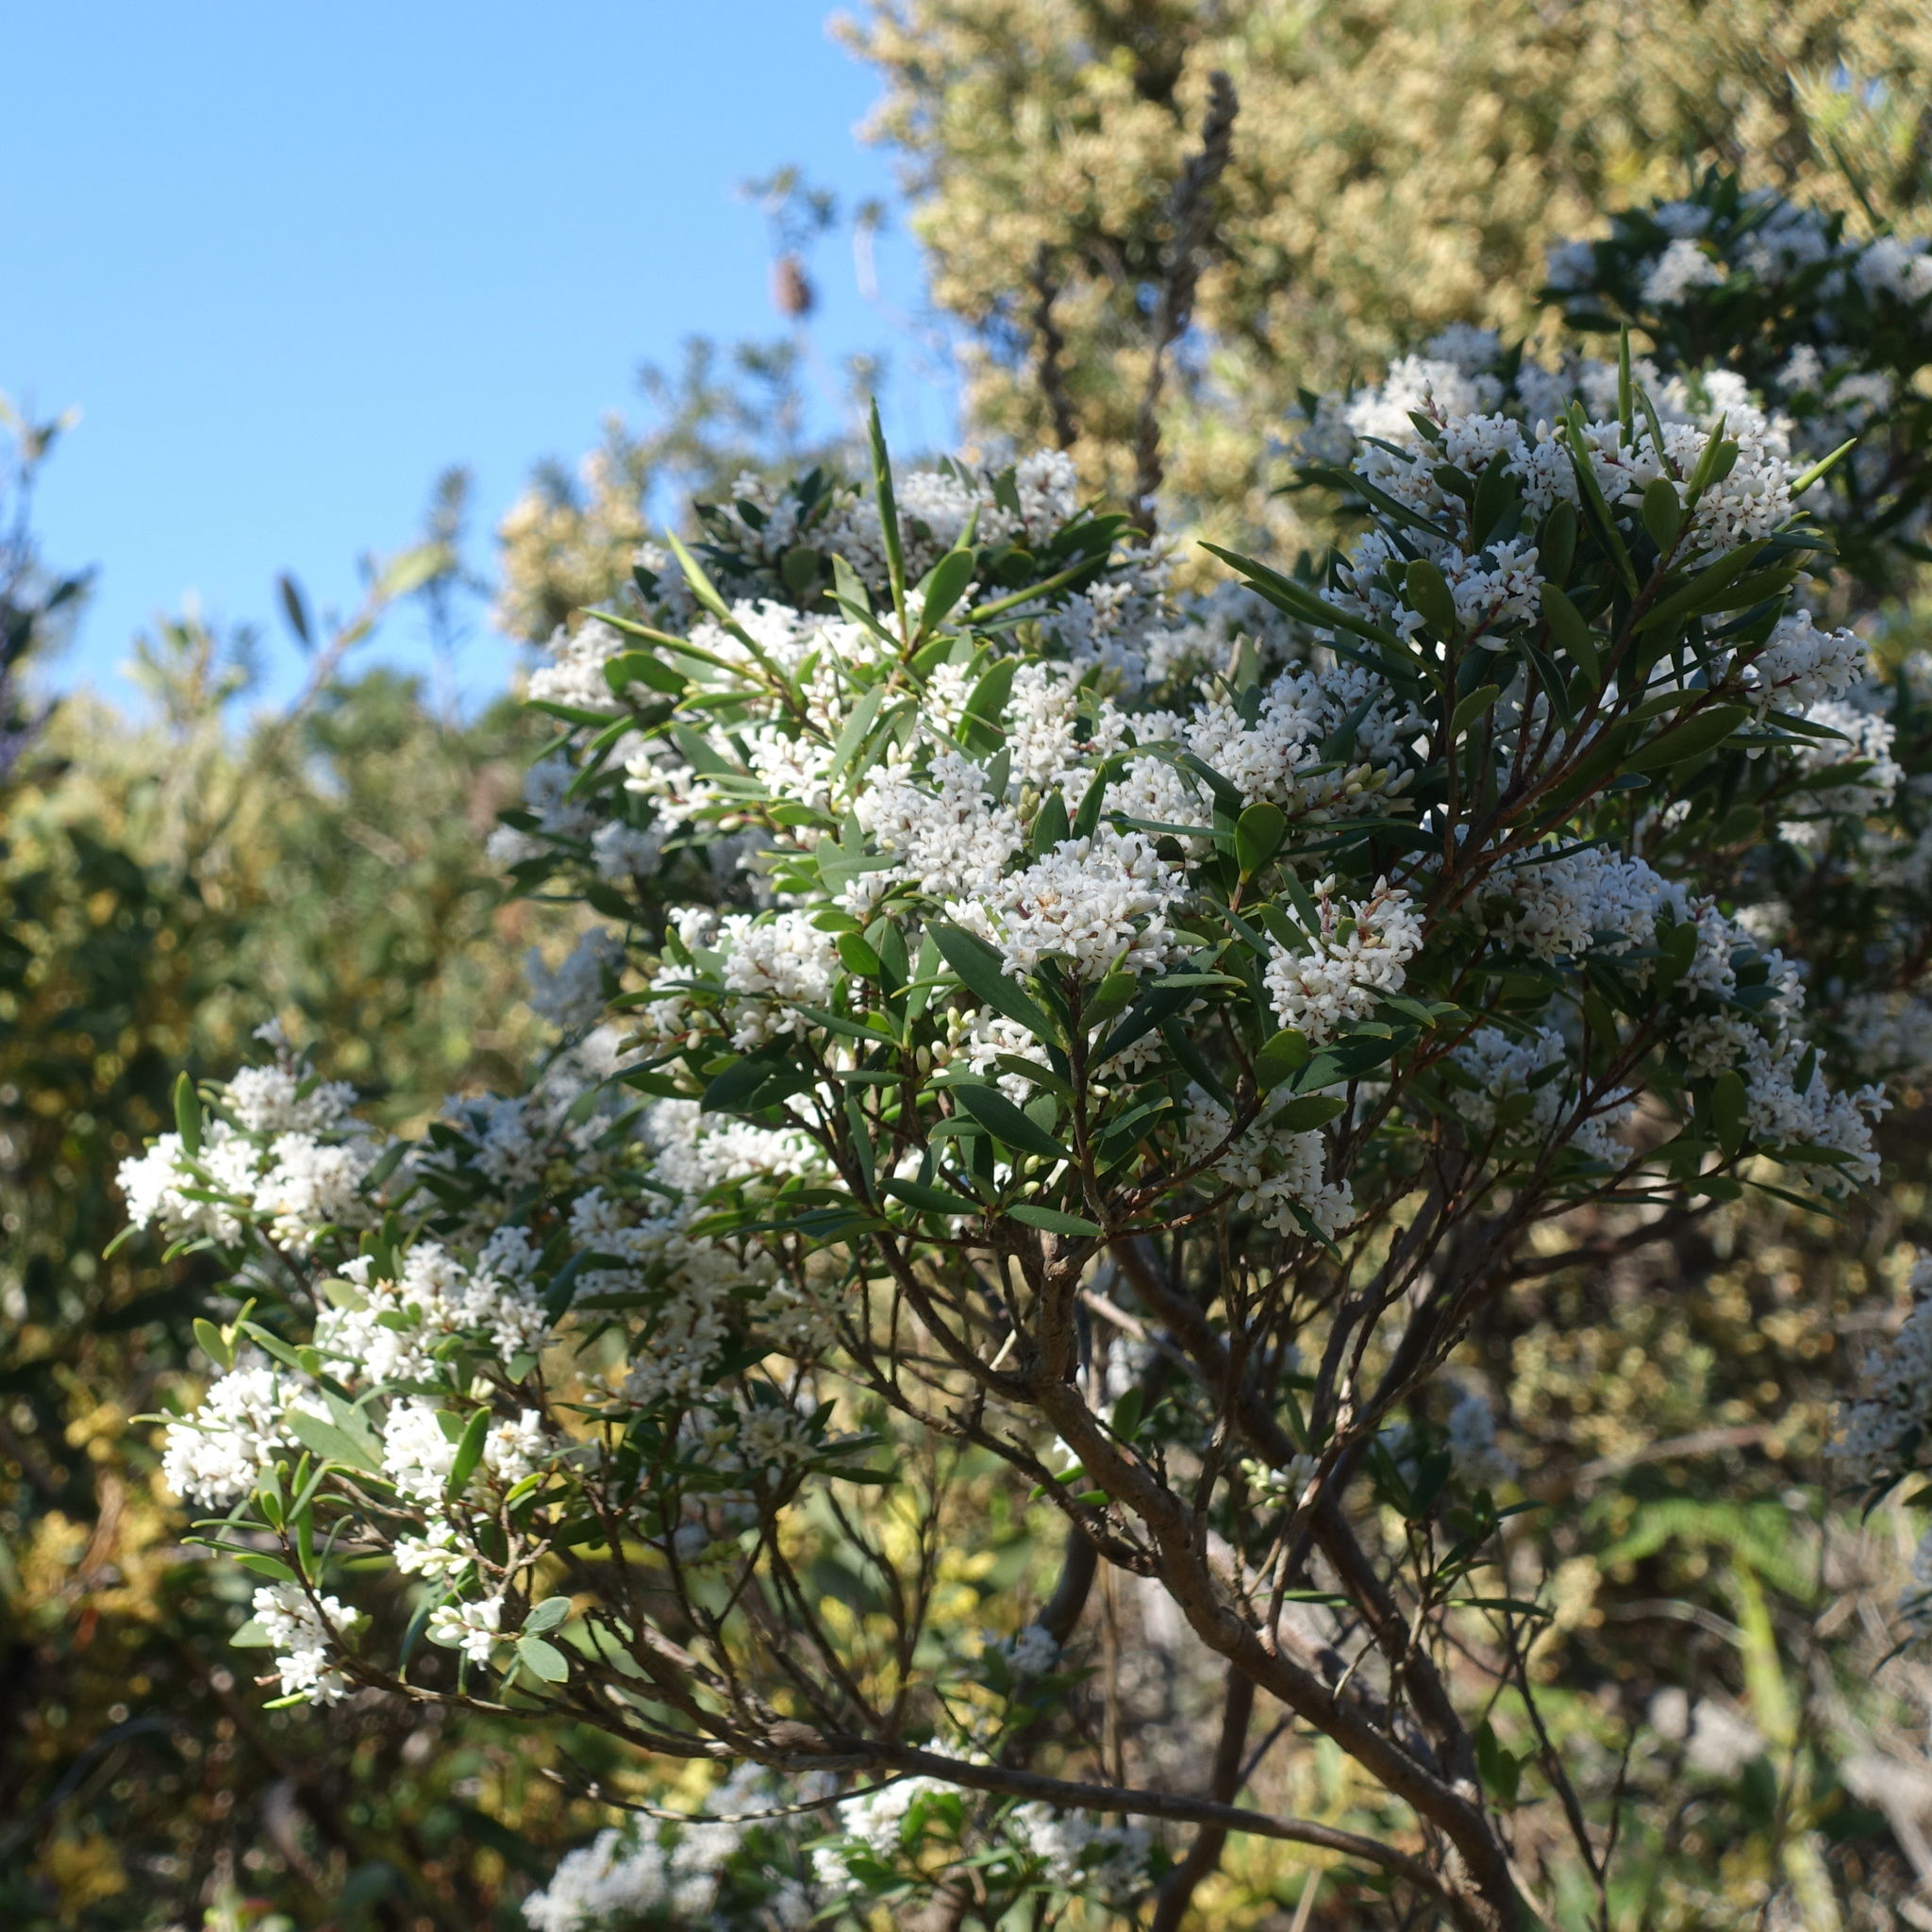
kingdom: Plantae
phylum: Tracheophyta
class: Magnoliopsida
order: Ericales
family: Ericaceae
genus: Leptecophylla
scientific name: Leptecophylla parvifolia
